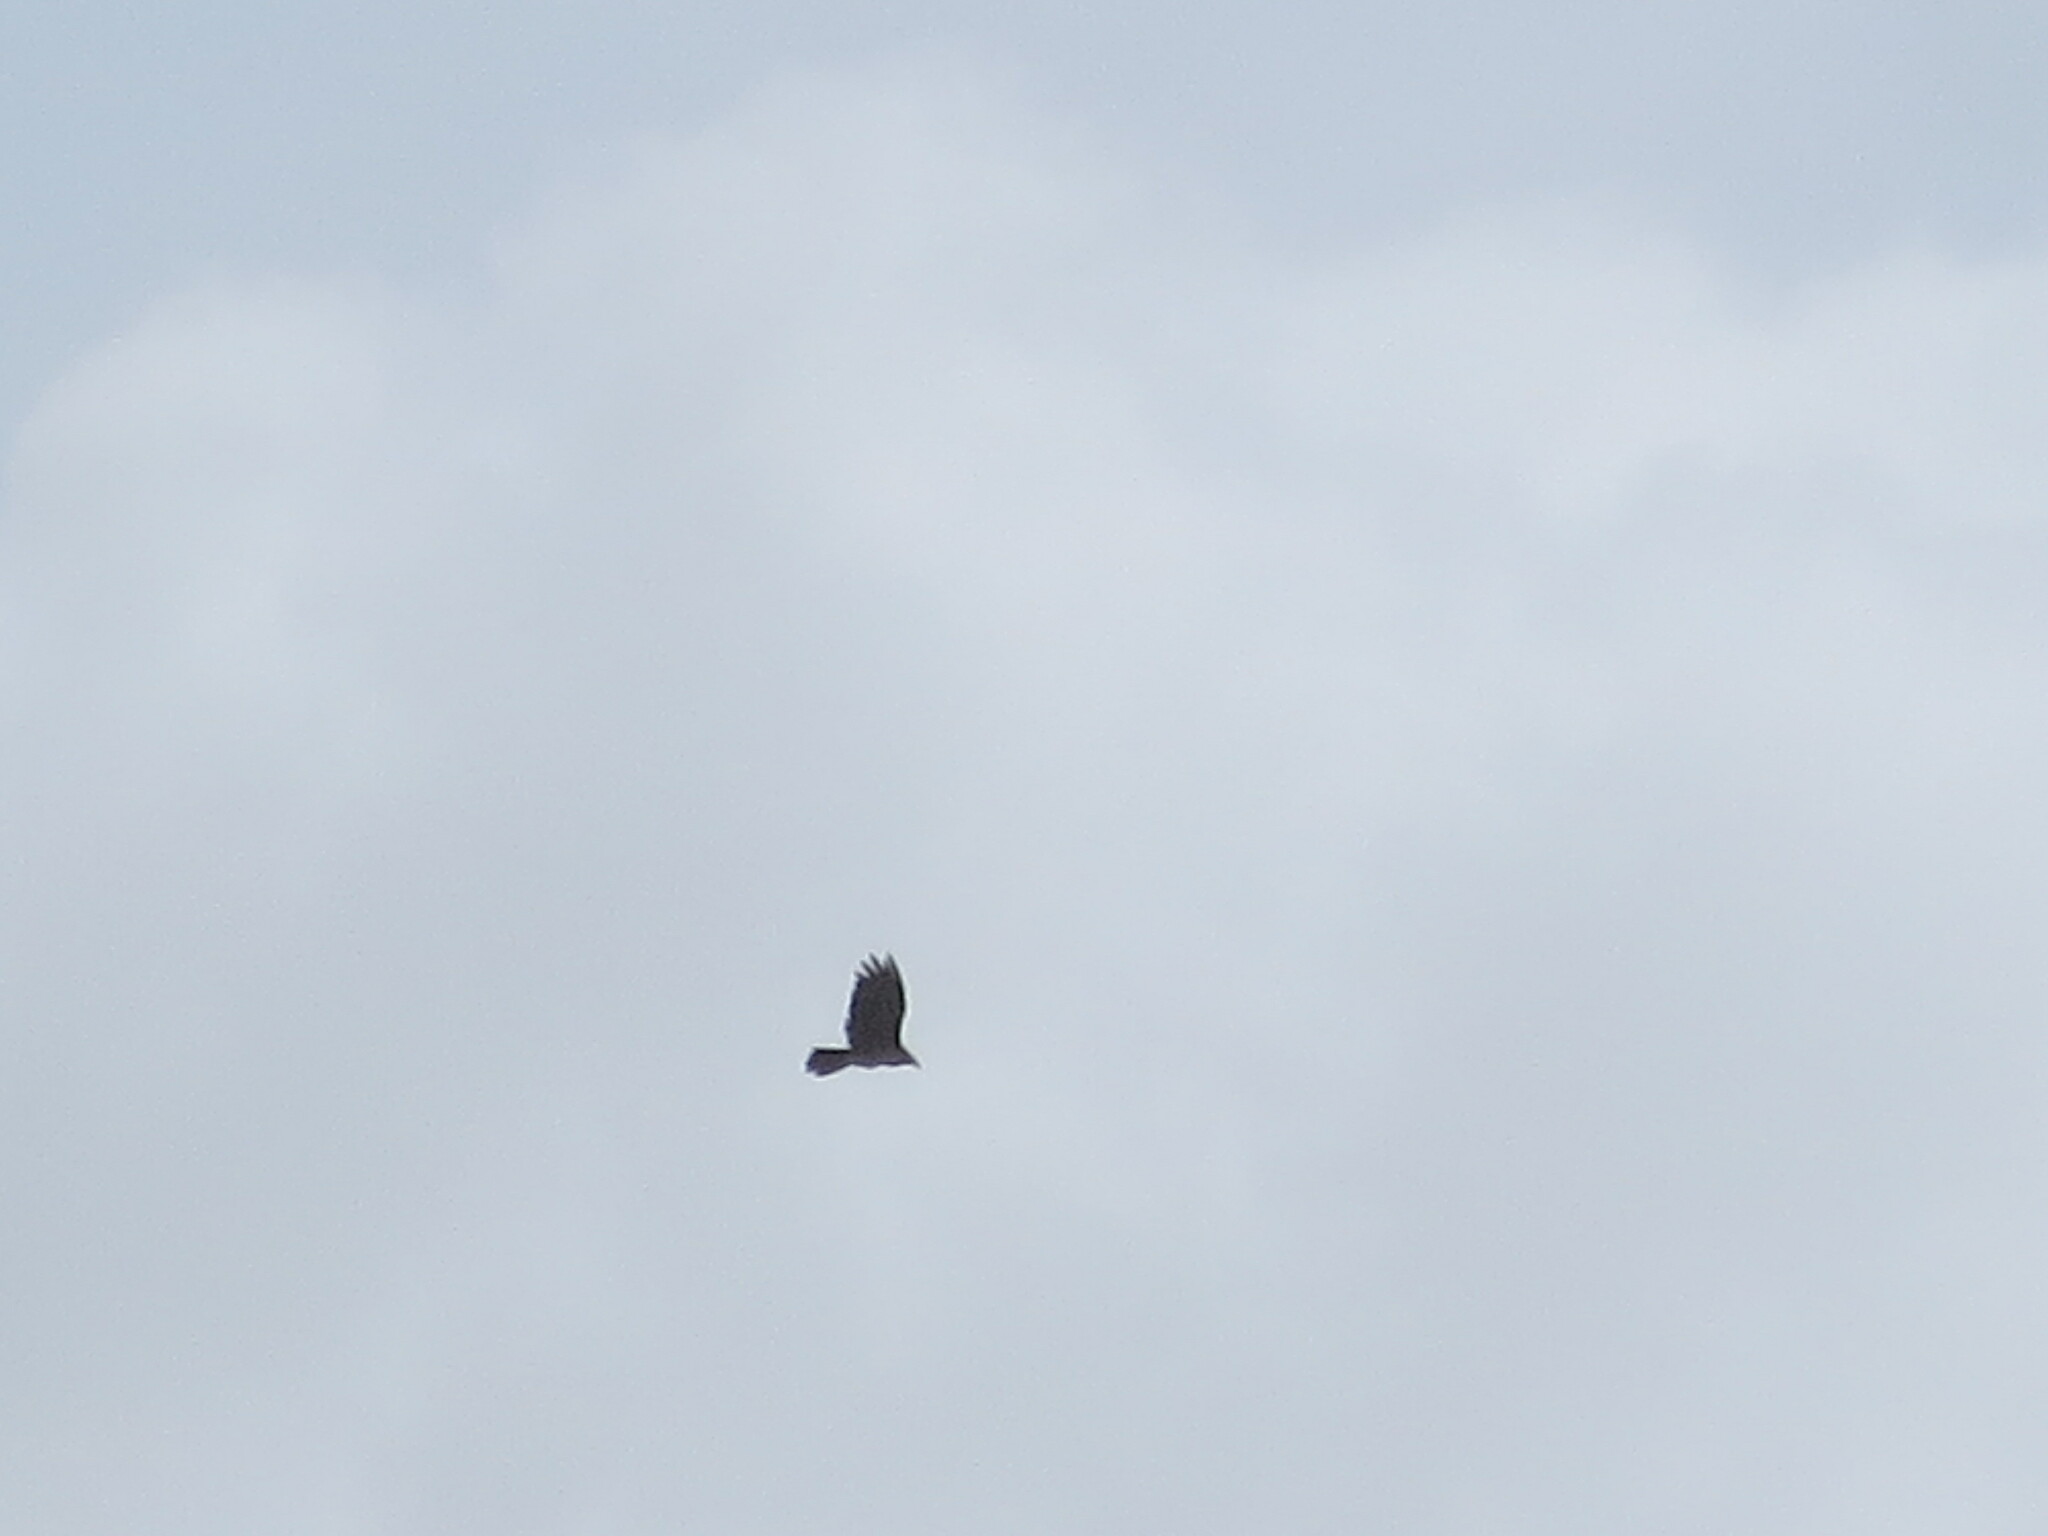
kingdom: Animalia
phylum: Chordata
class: Aves
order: Accipitriformes
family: Cathartidae
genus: Cathartes
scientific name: Cathartes aura
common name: Turkey vulture
